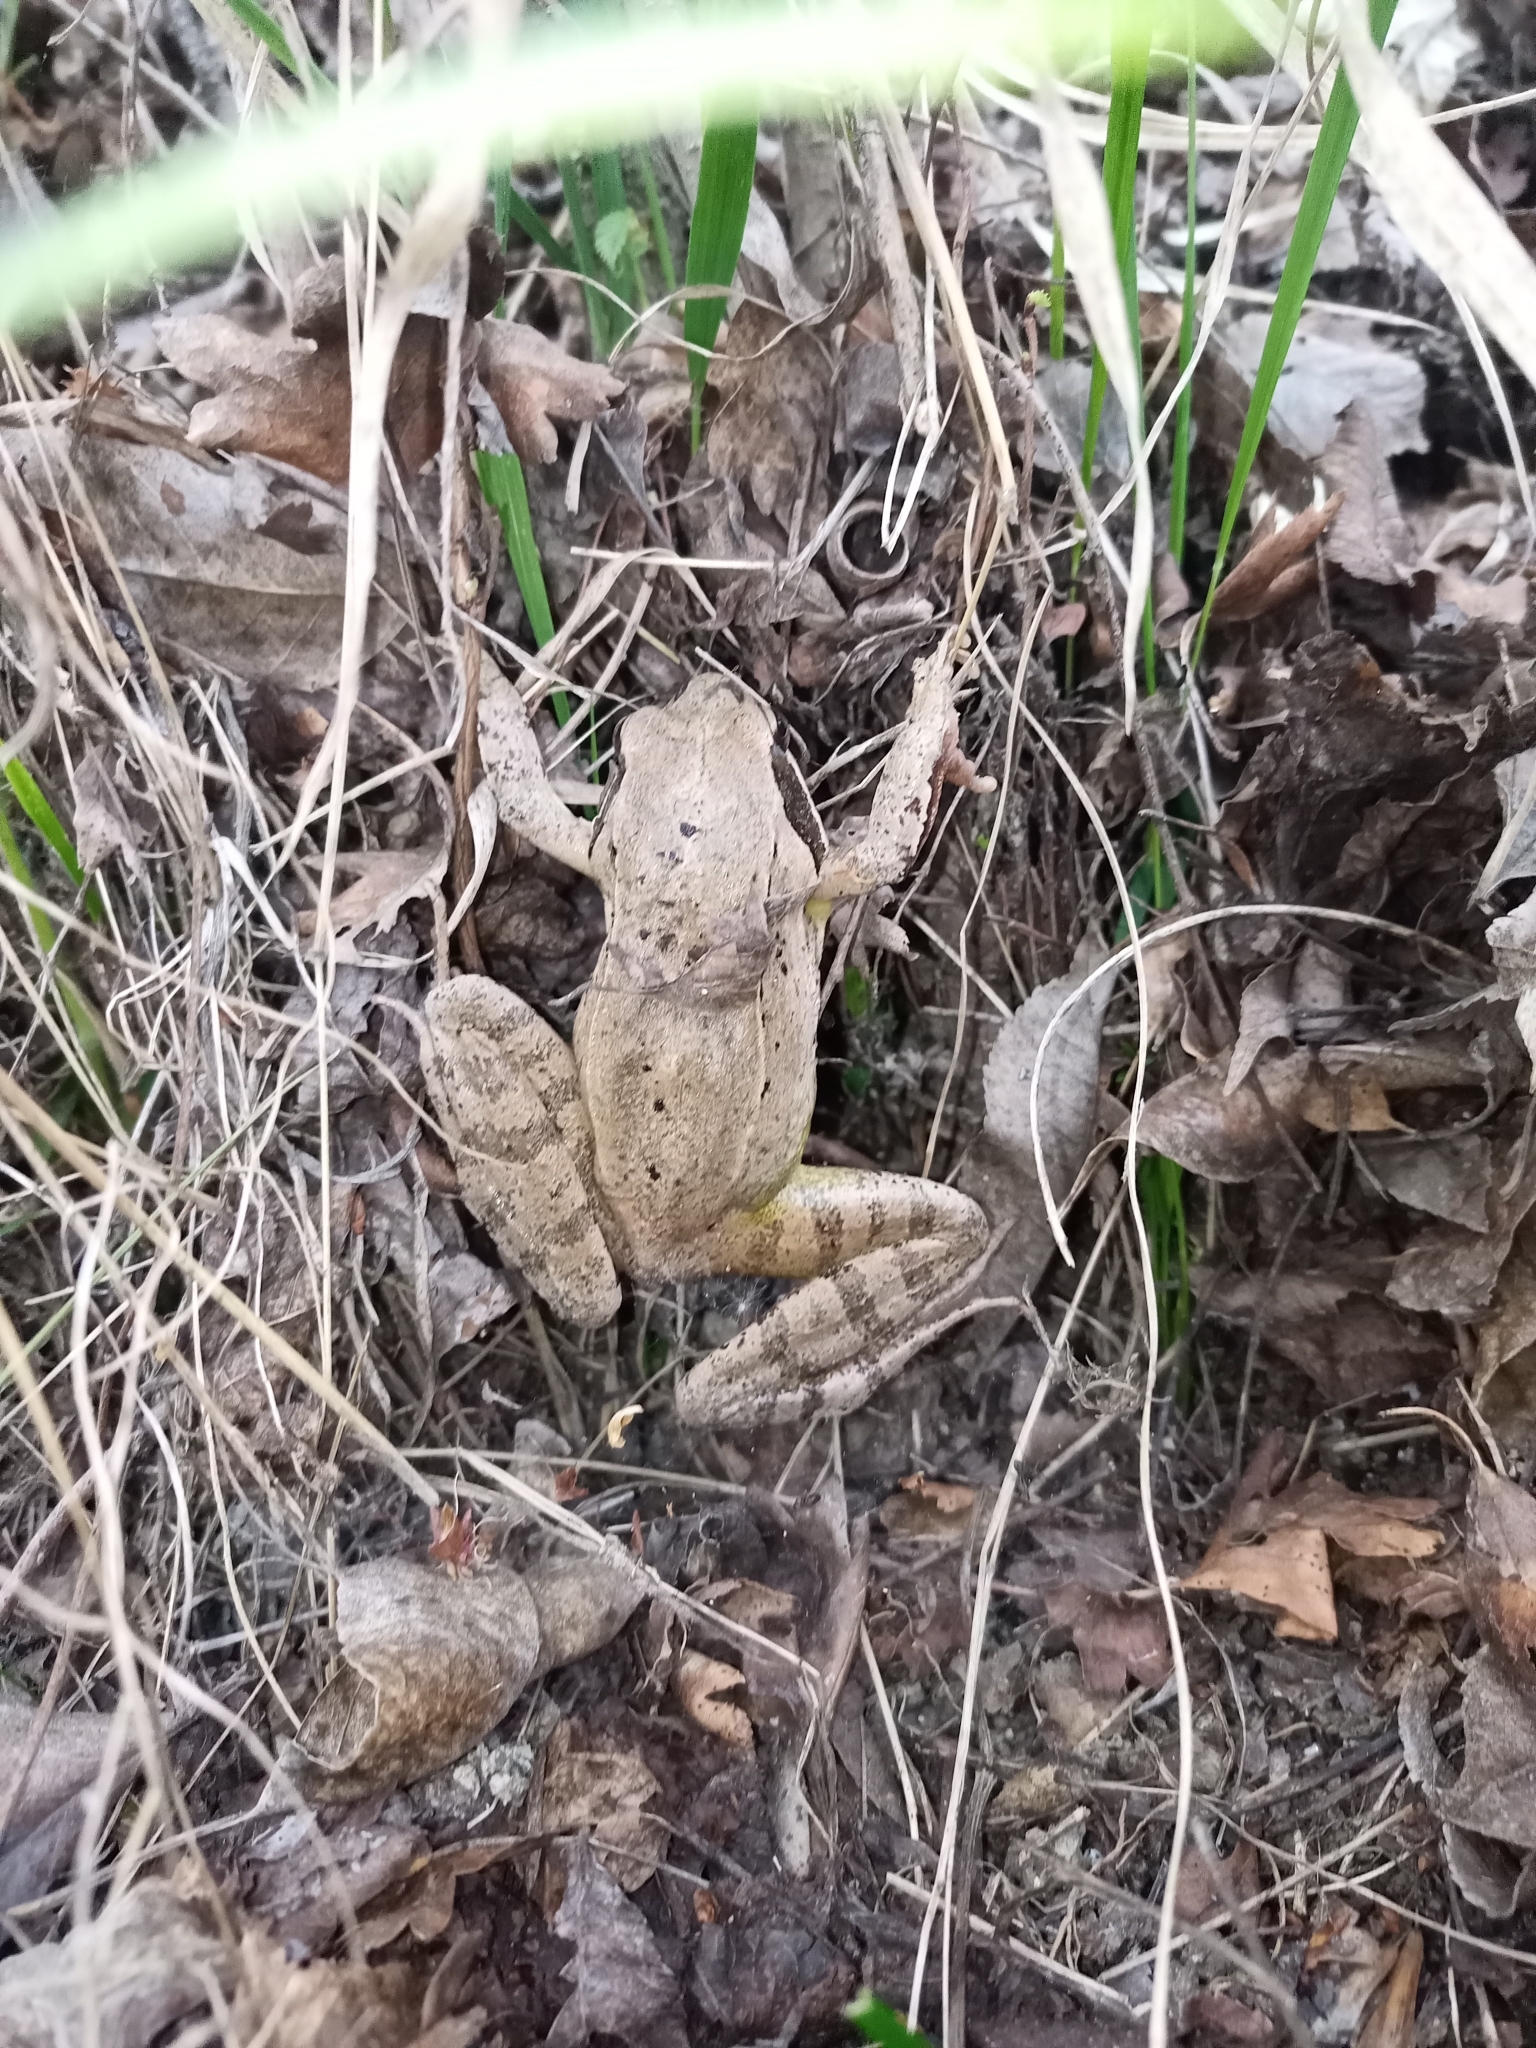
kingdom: Animalia
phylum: Chordata
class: Amphibia
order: Anura
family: Ranidae
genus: Rana
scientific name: Rana dalmatina
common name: Agile frog
